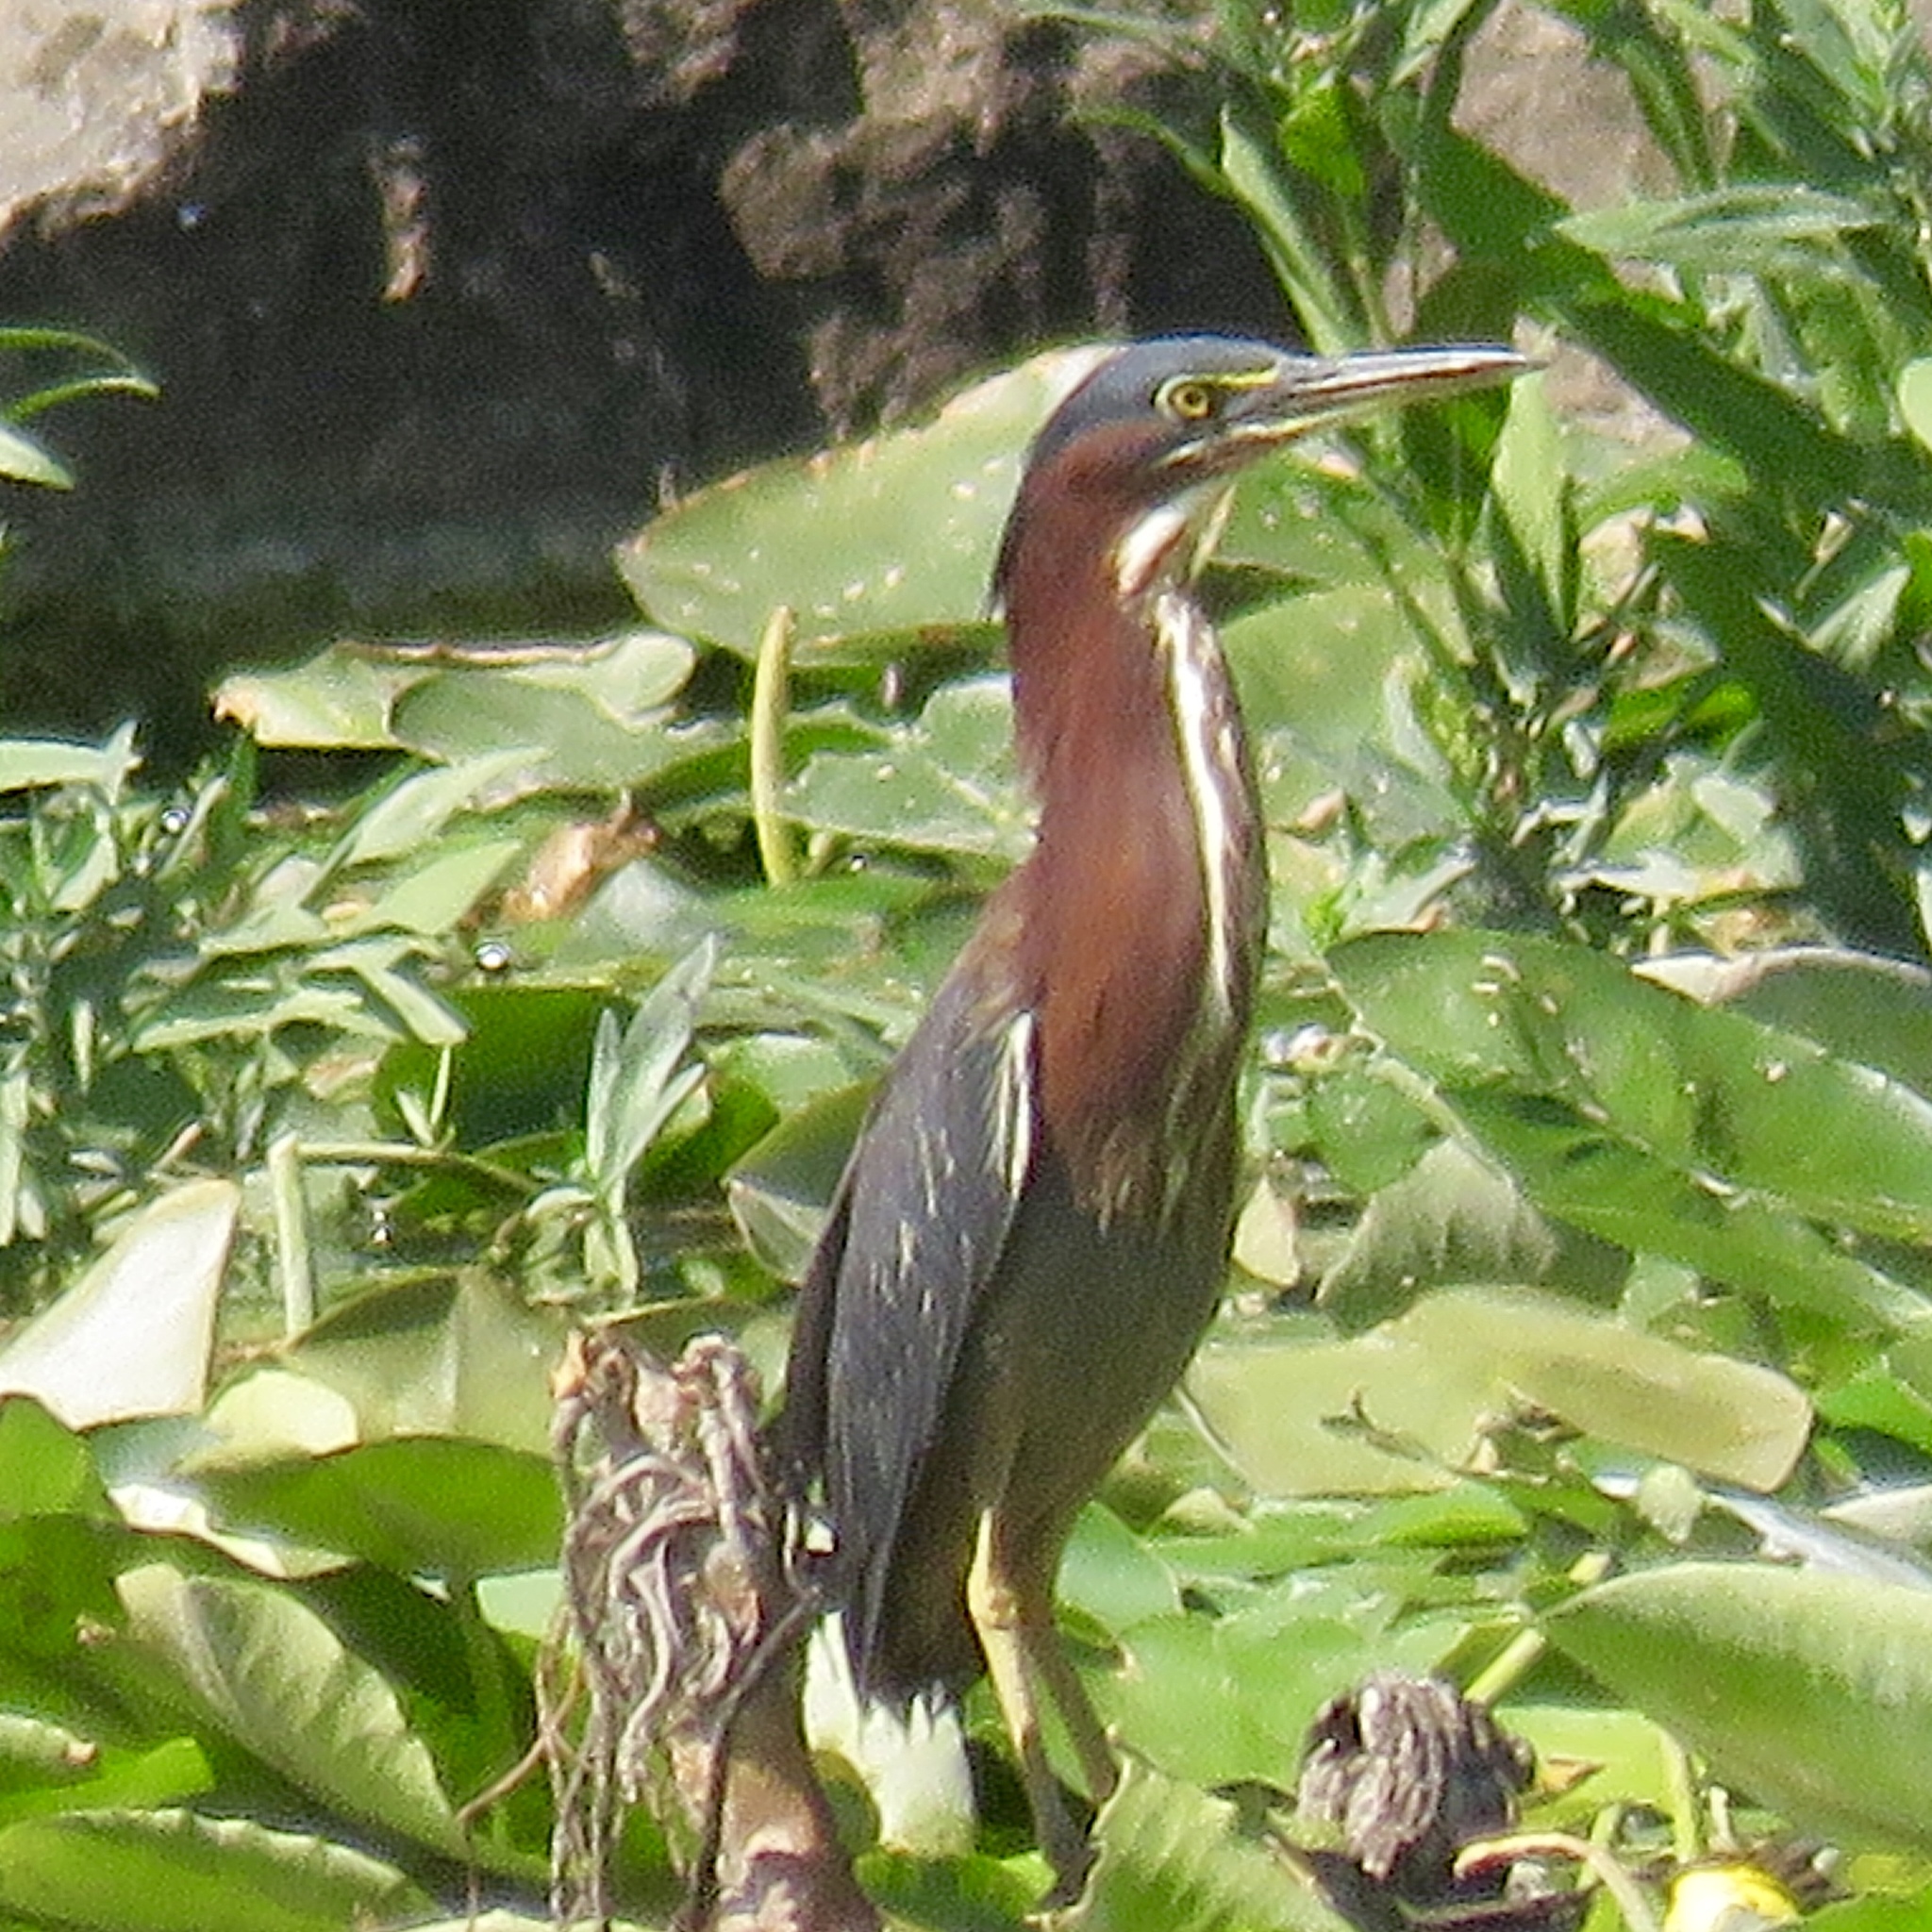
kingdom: Animalia
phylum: Chordata
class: Aves
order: Pelecaniformes
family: Ardeidae
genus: Butorides
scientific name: Butorides virescens
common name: Green heron
